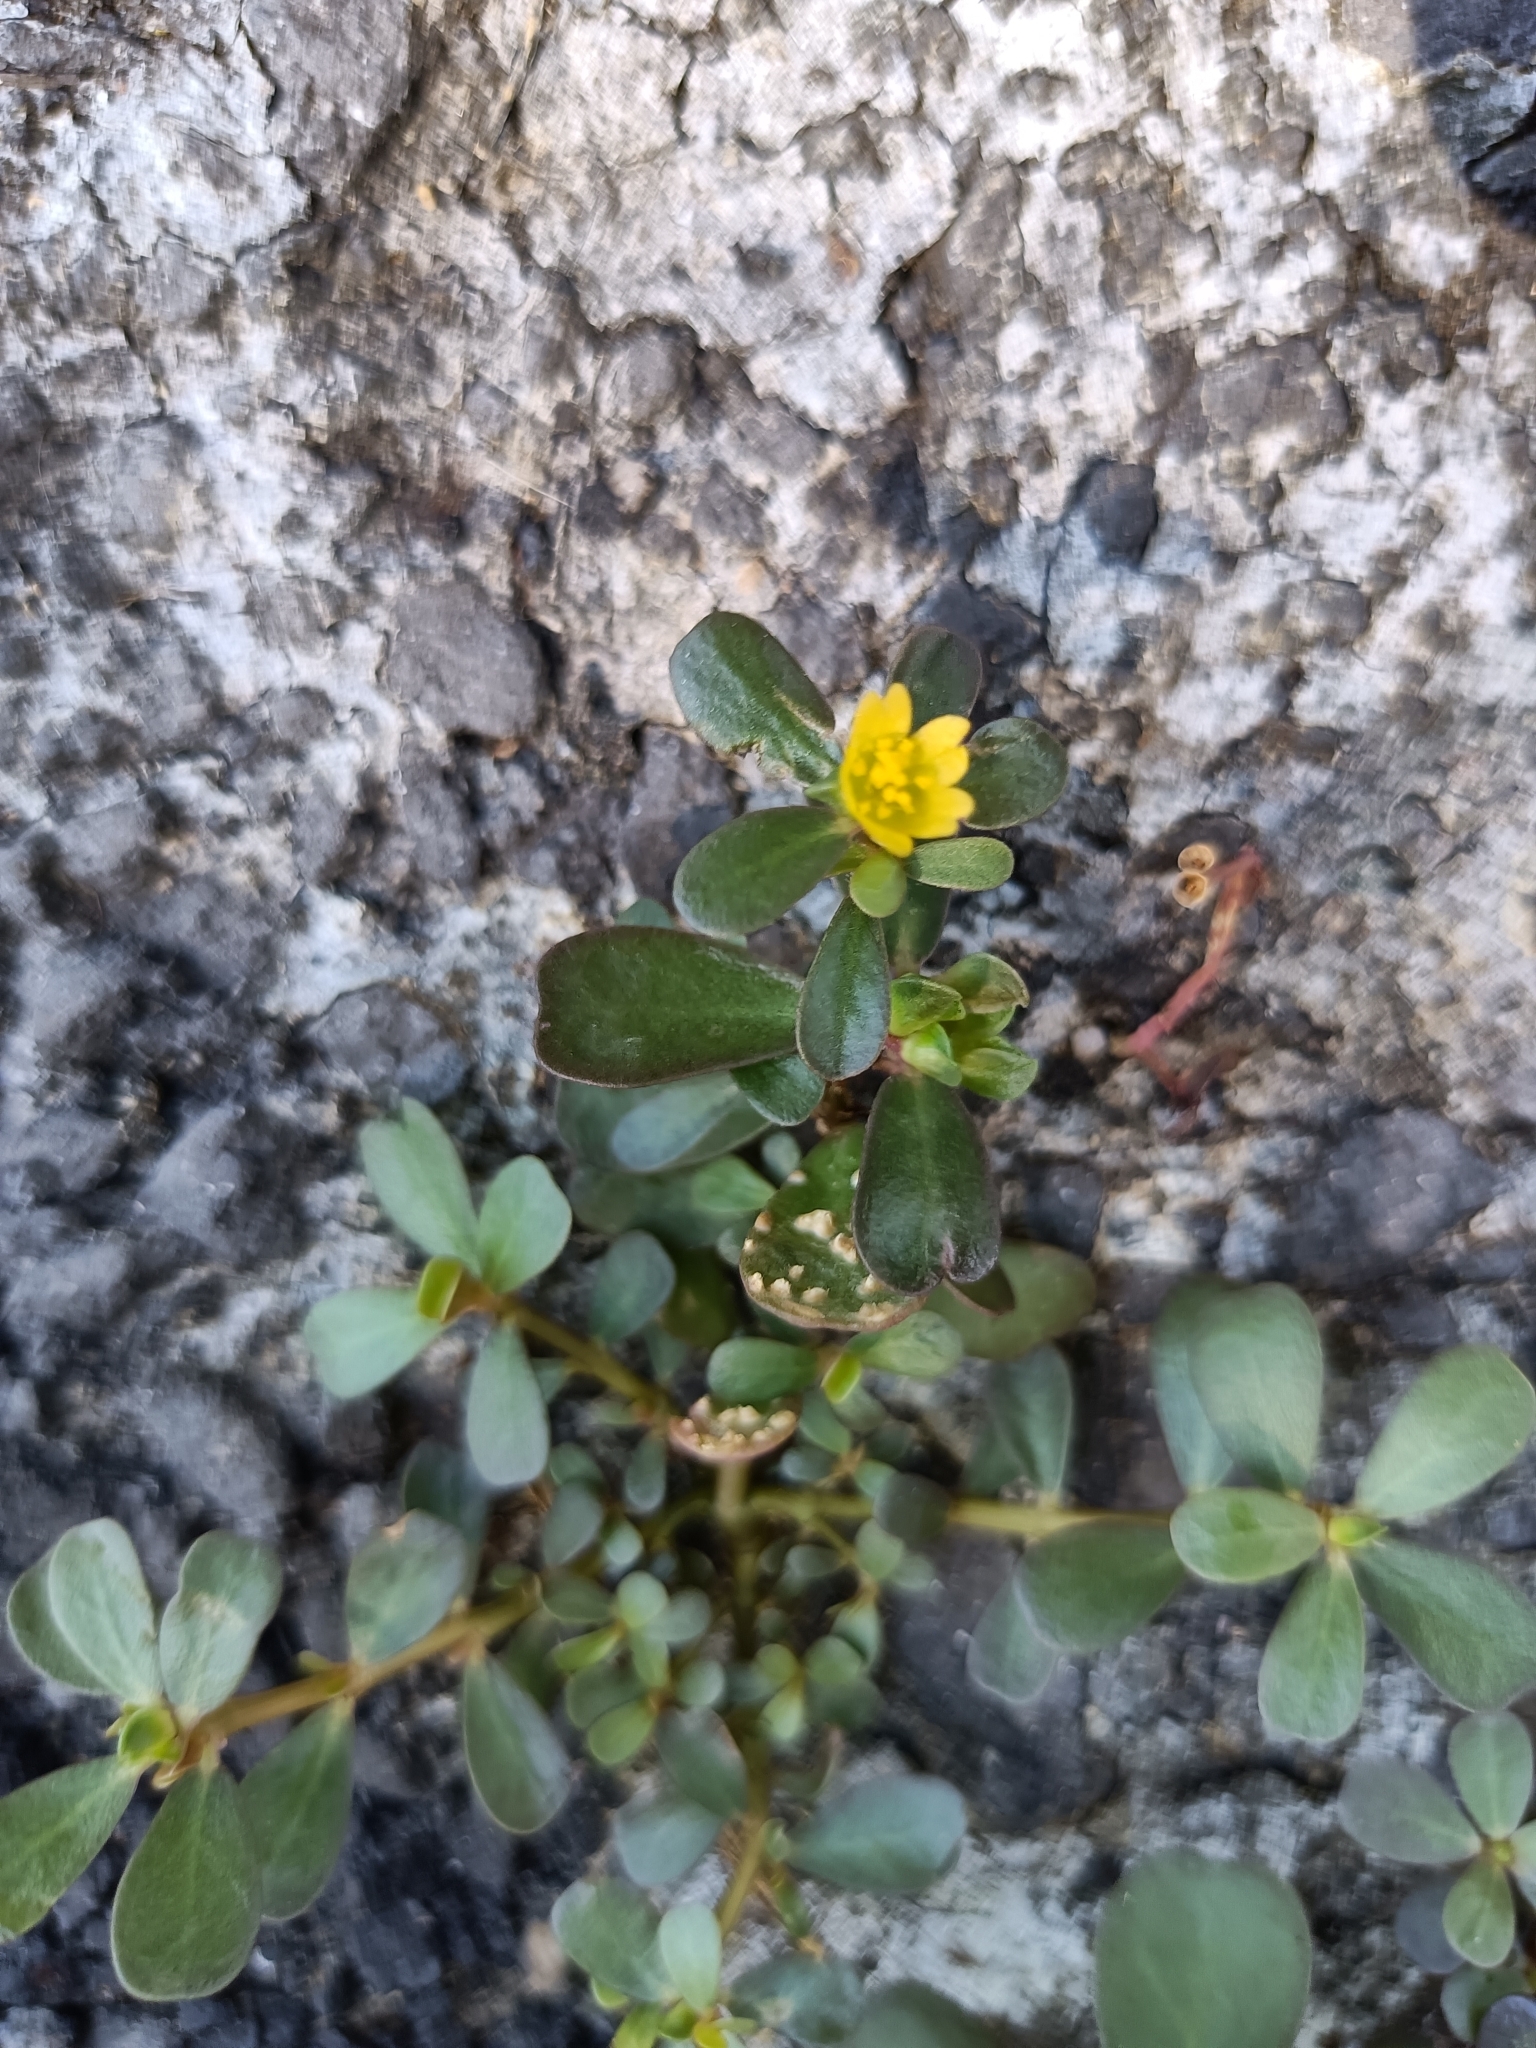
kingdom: Plantae
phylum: Tracheophyta
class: Magnoliopsida
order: Caryophyllales
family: Portulacaceae
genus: Portulaca
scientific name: Portulaca oleracea
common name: Common purslane
